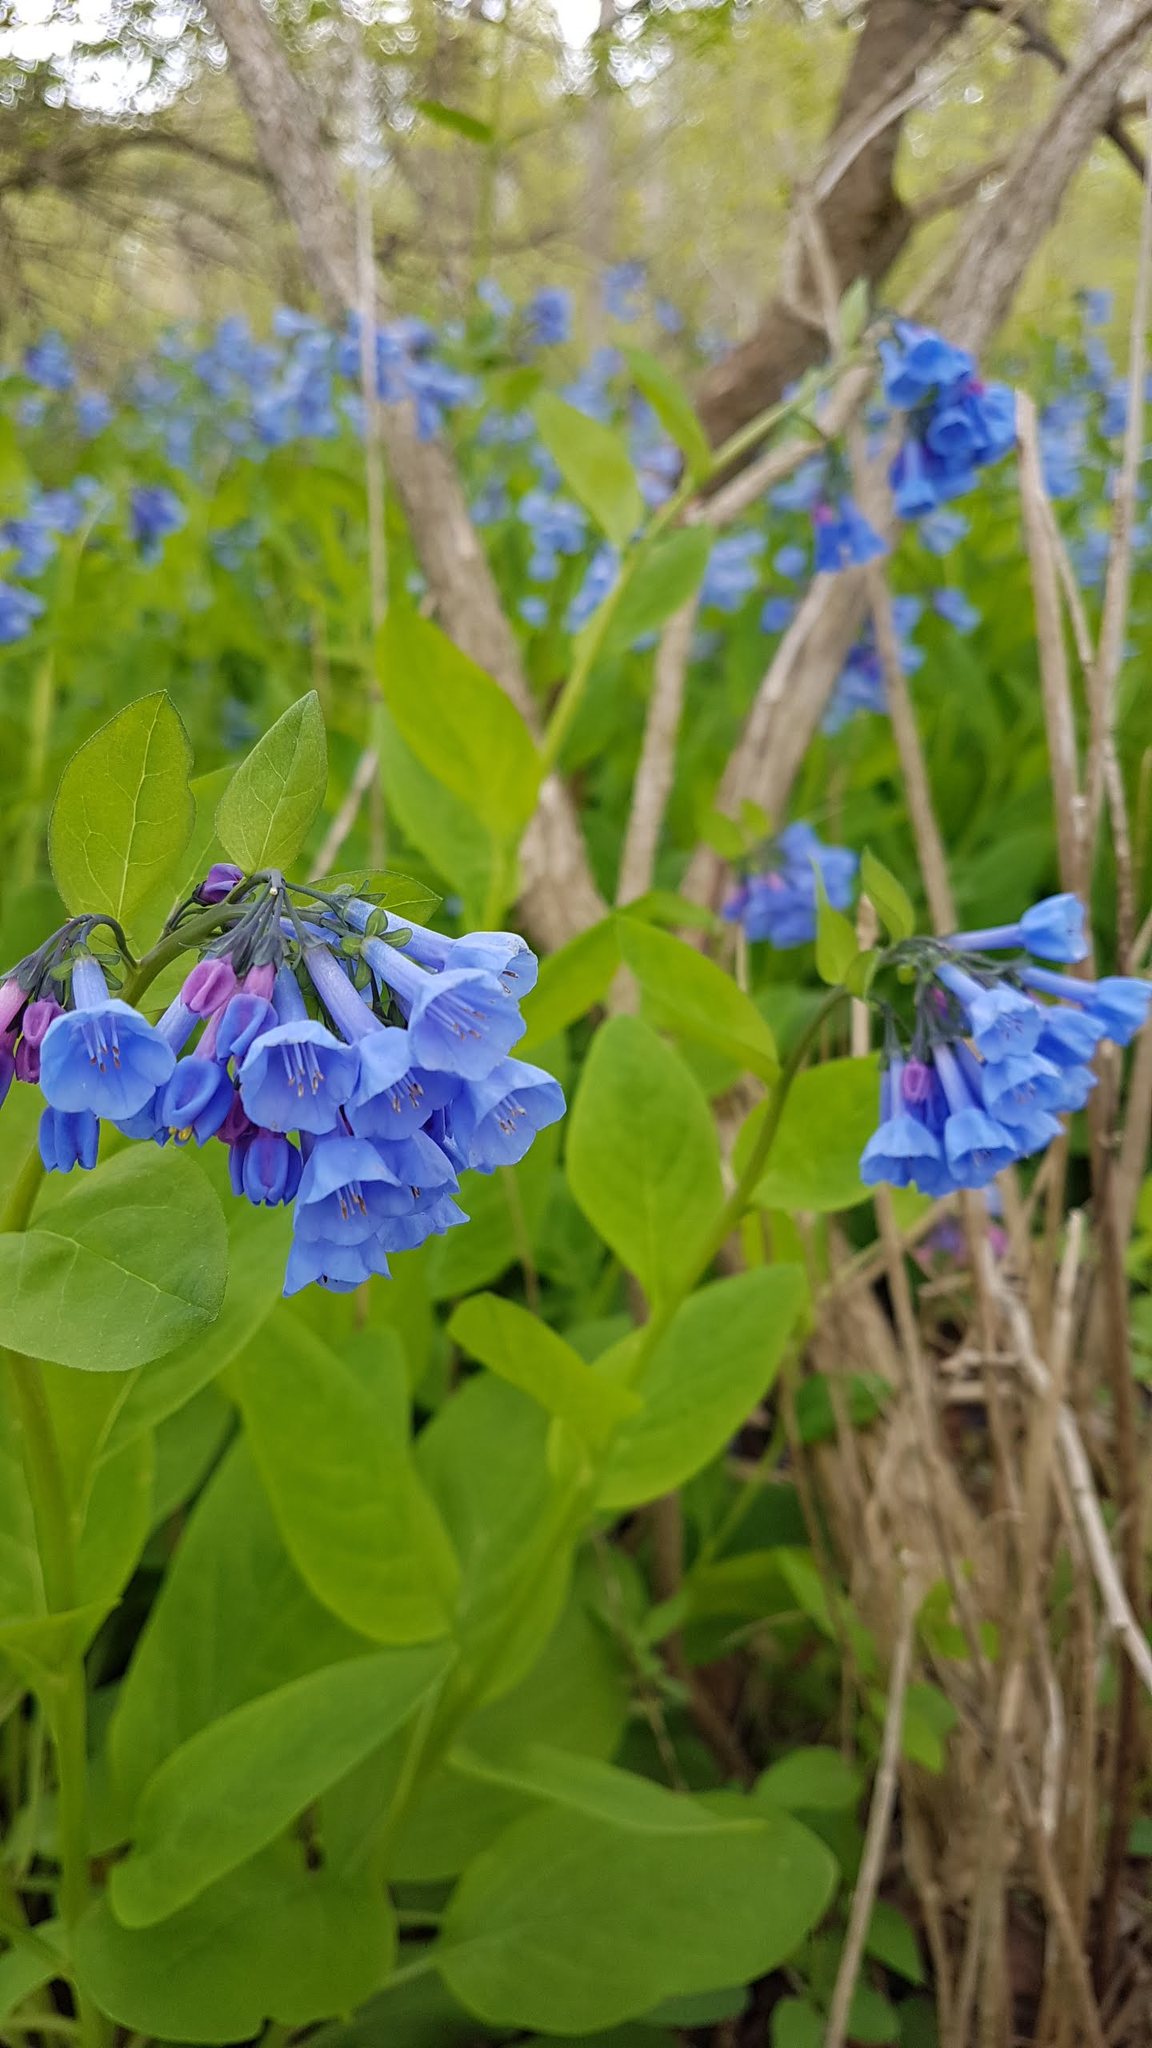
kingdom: Plantae
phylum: Tracheophyta
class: Magnoliopsida
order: Boraginales
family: Boraginaceae
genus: Mertensia
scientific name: Mertensia virginica
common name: Virginia bluebells
